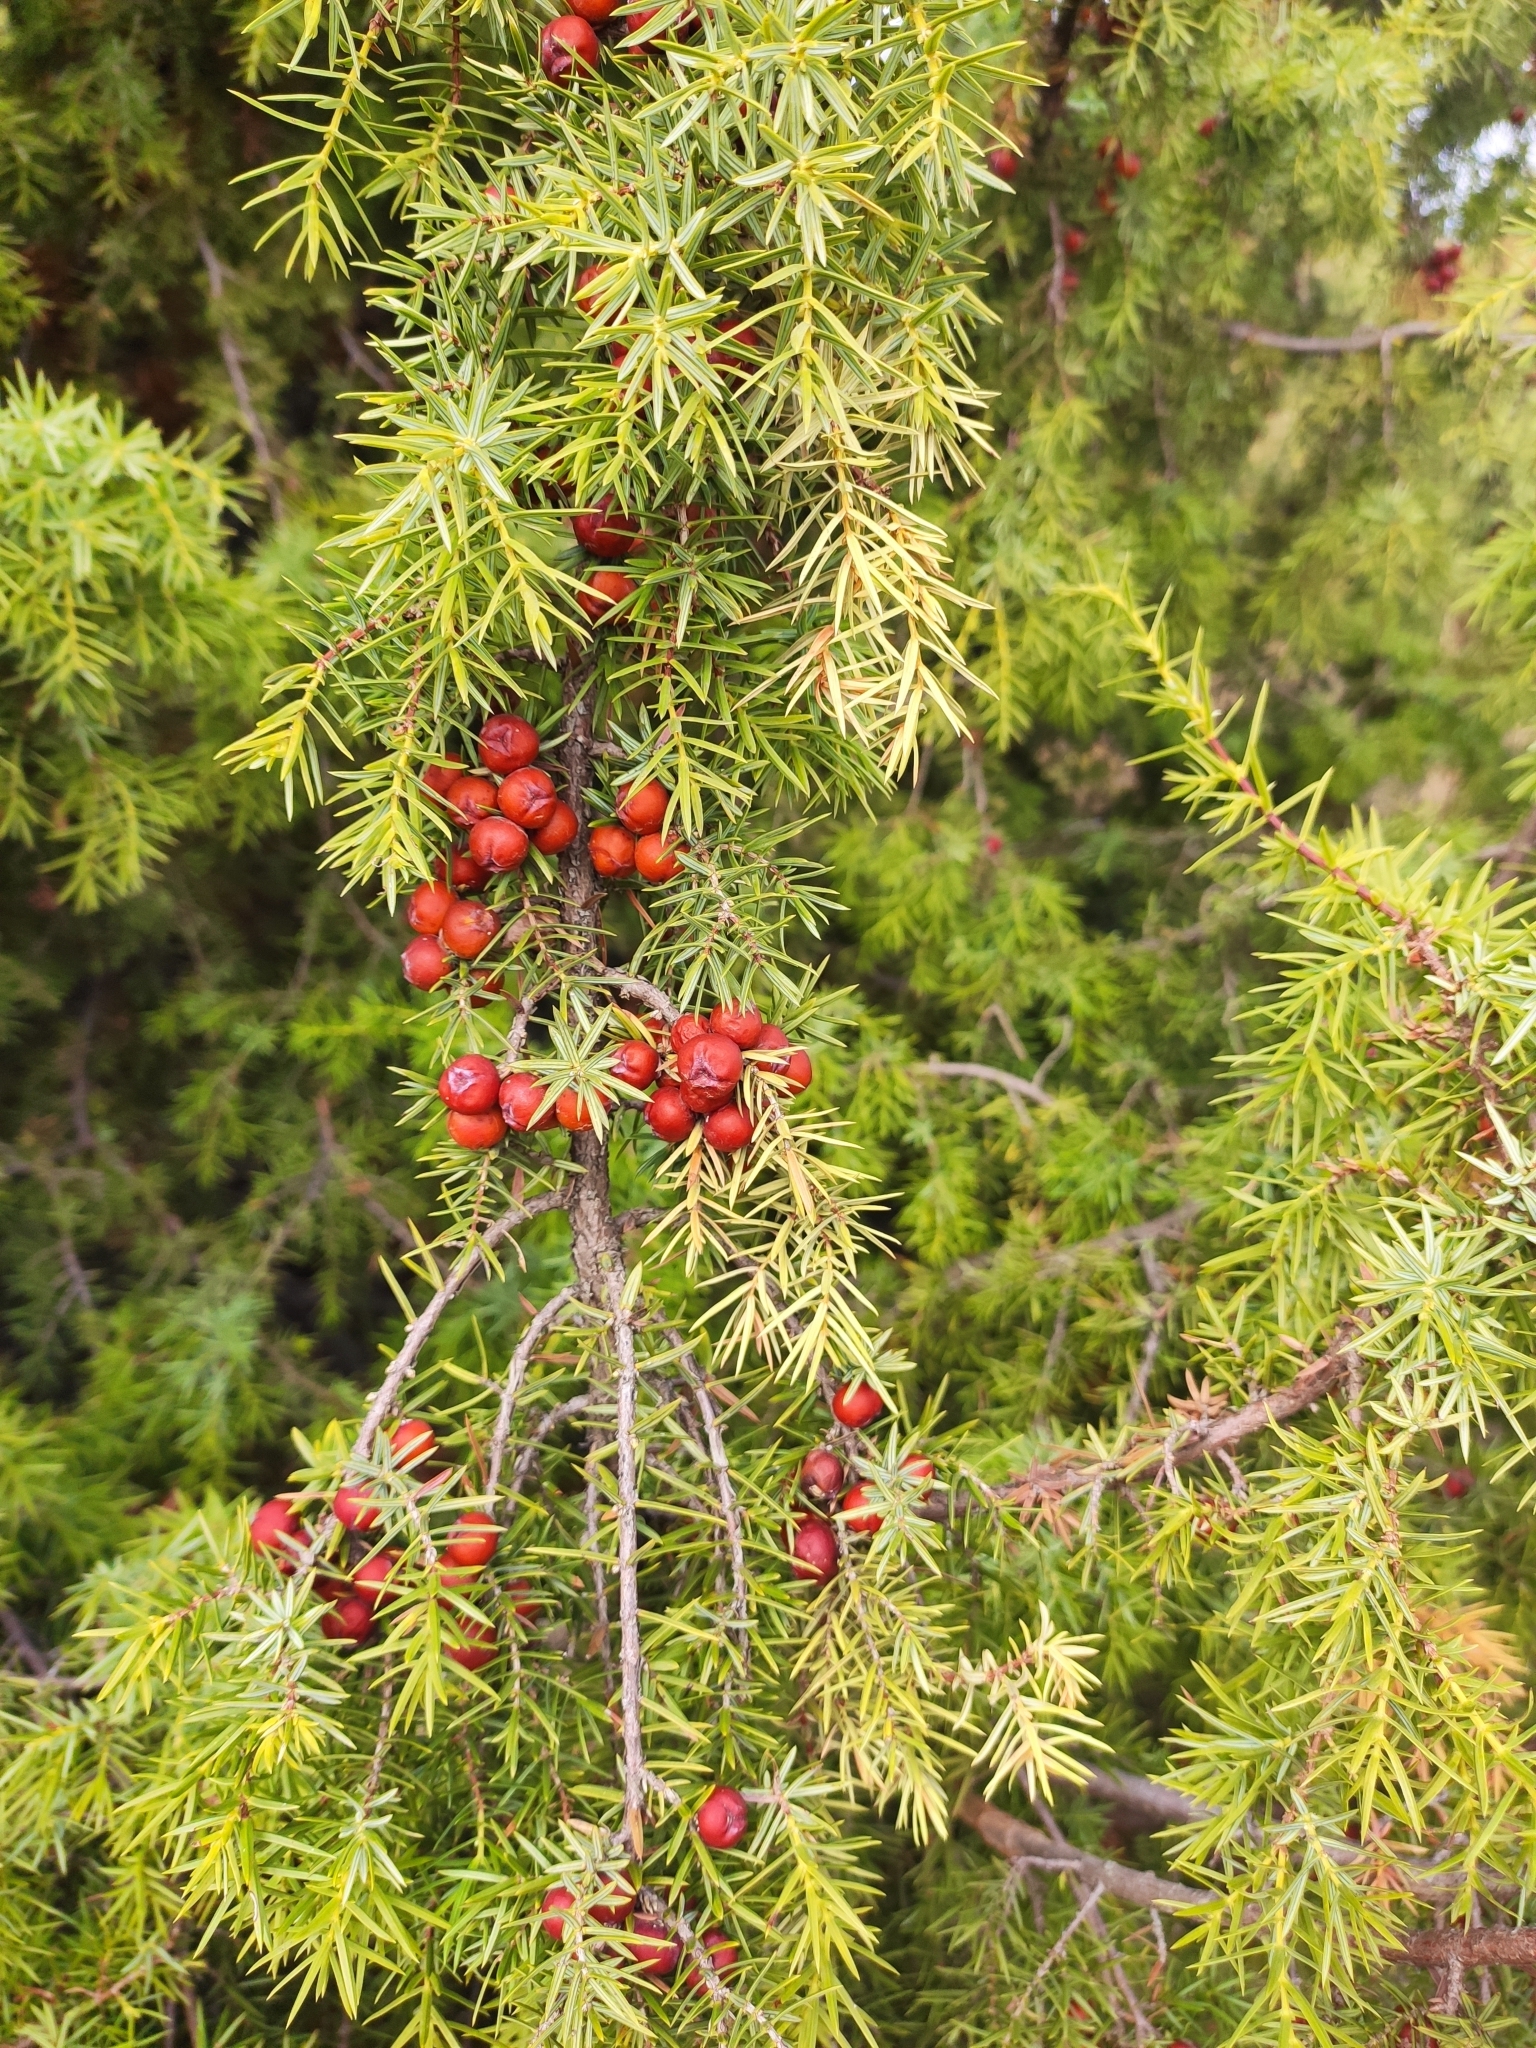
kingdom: Plantae
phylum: Tracheophyta
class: Pinopsida
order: Pinales
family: Cupressaceae
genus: Juniperus
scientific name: Juniperus oxycedrus
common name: Prickly juniper
